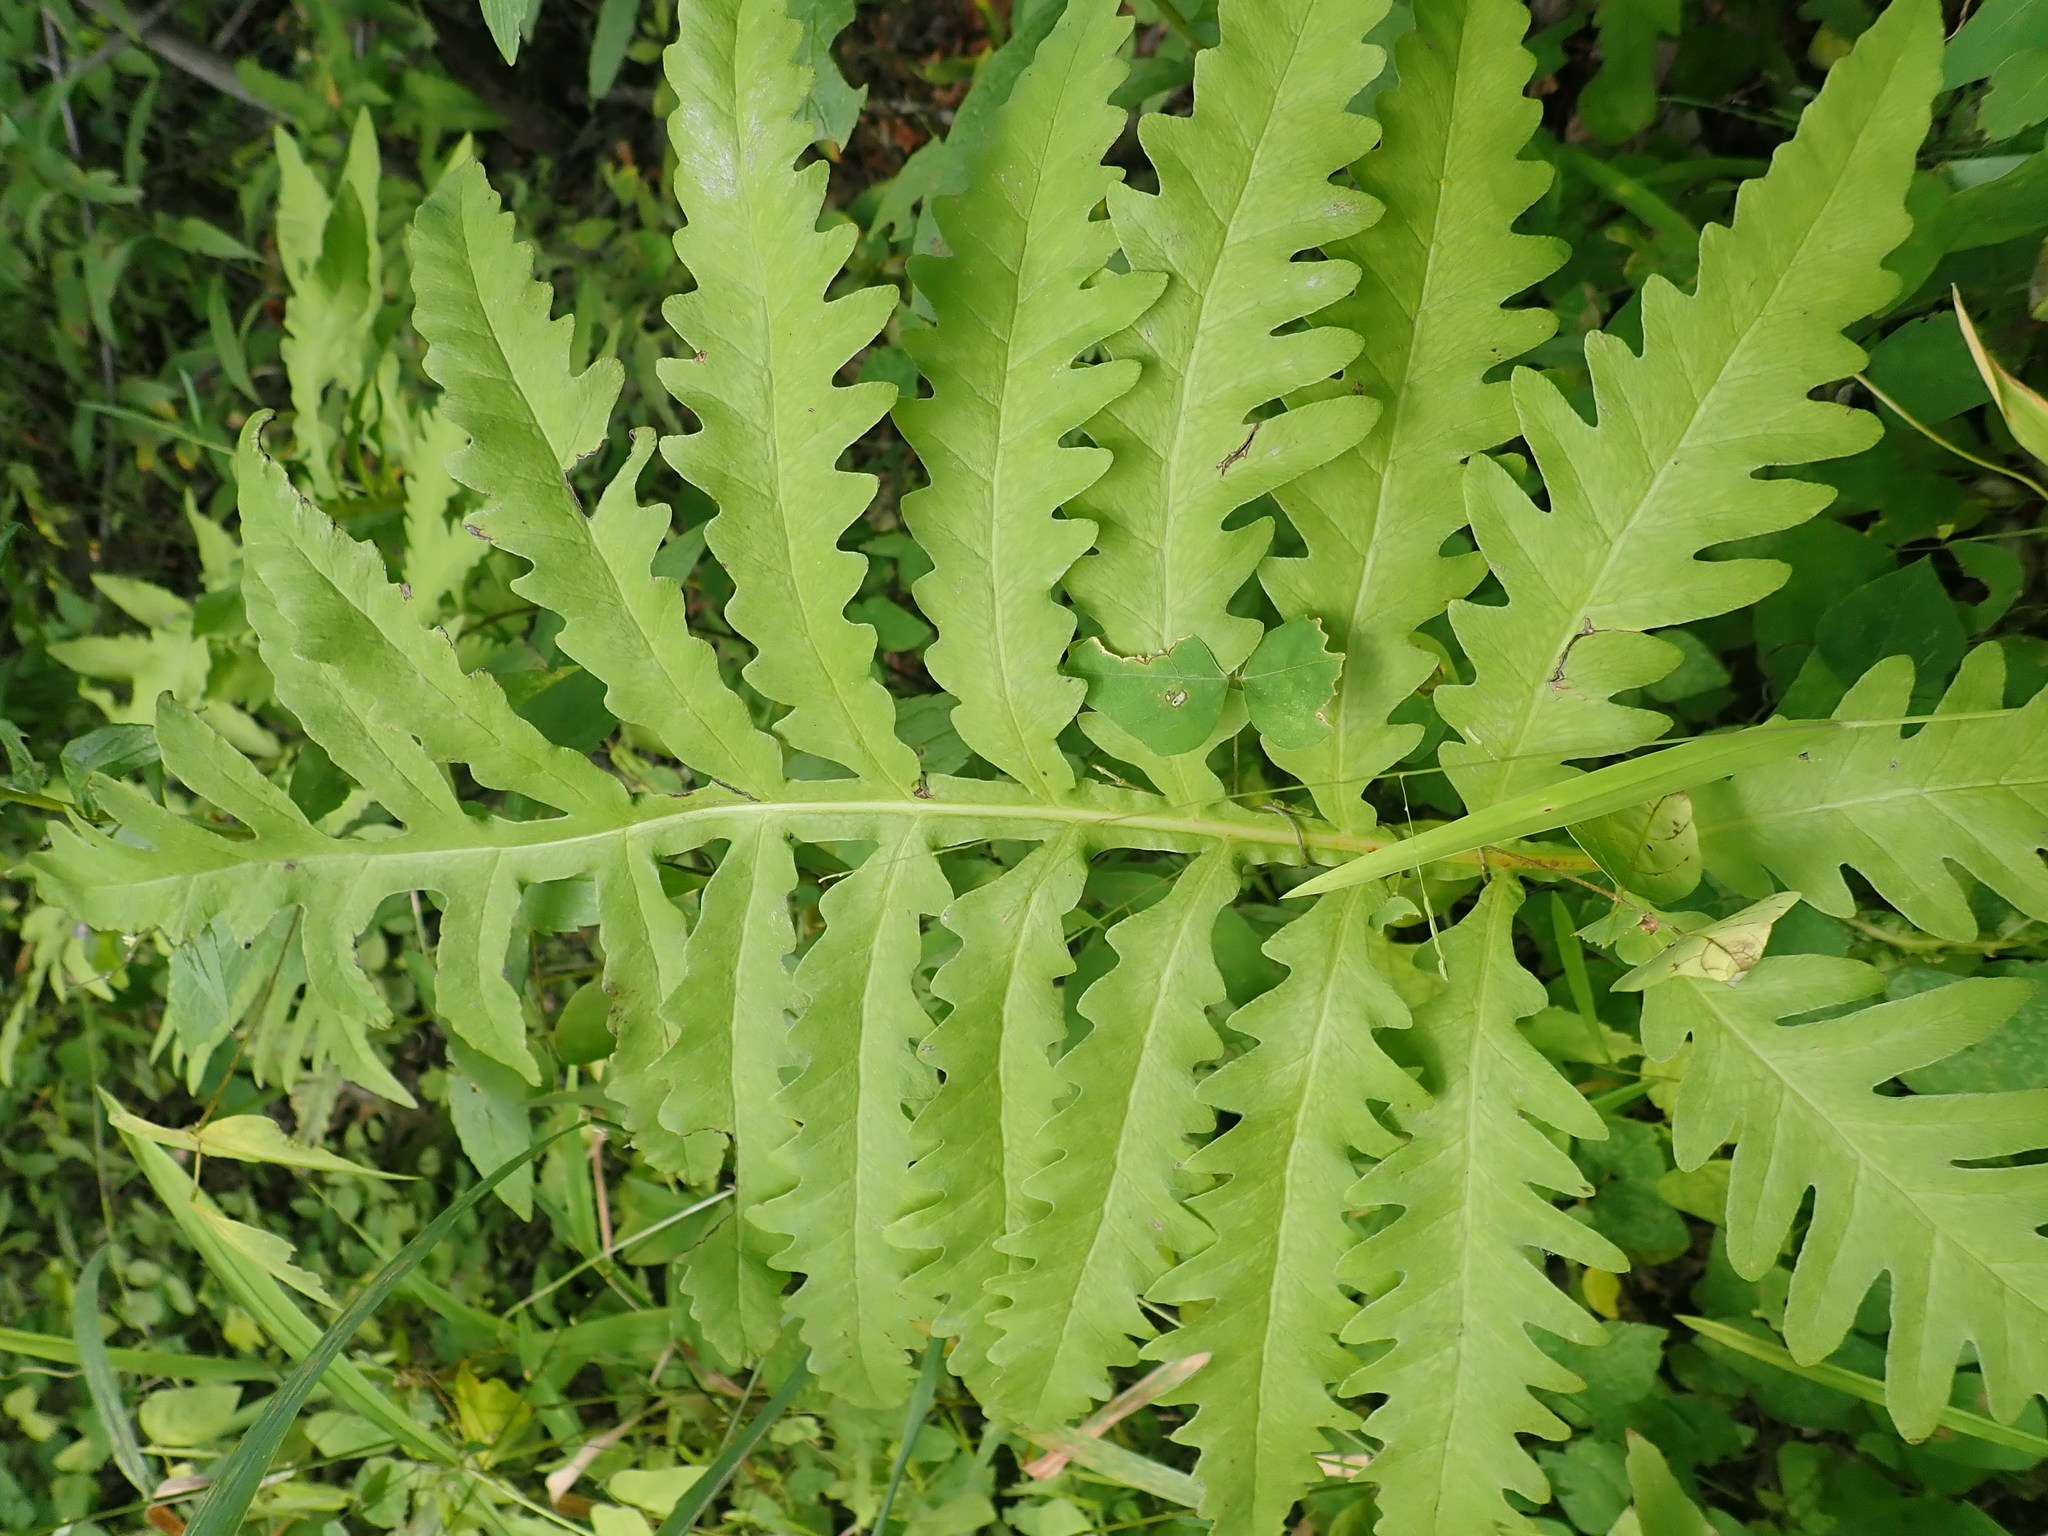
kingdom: Plantae
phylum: Tracheophyta
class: Polypodiopsida
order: Polypodiales
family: Onocleaceae
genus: Onoclea
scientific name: Onoclea sensibilis
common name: Sensitive fern
